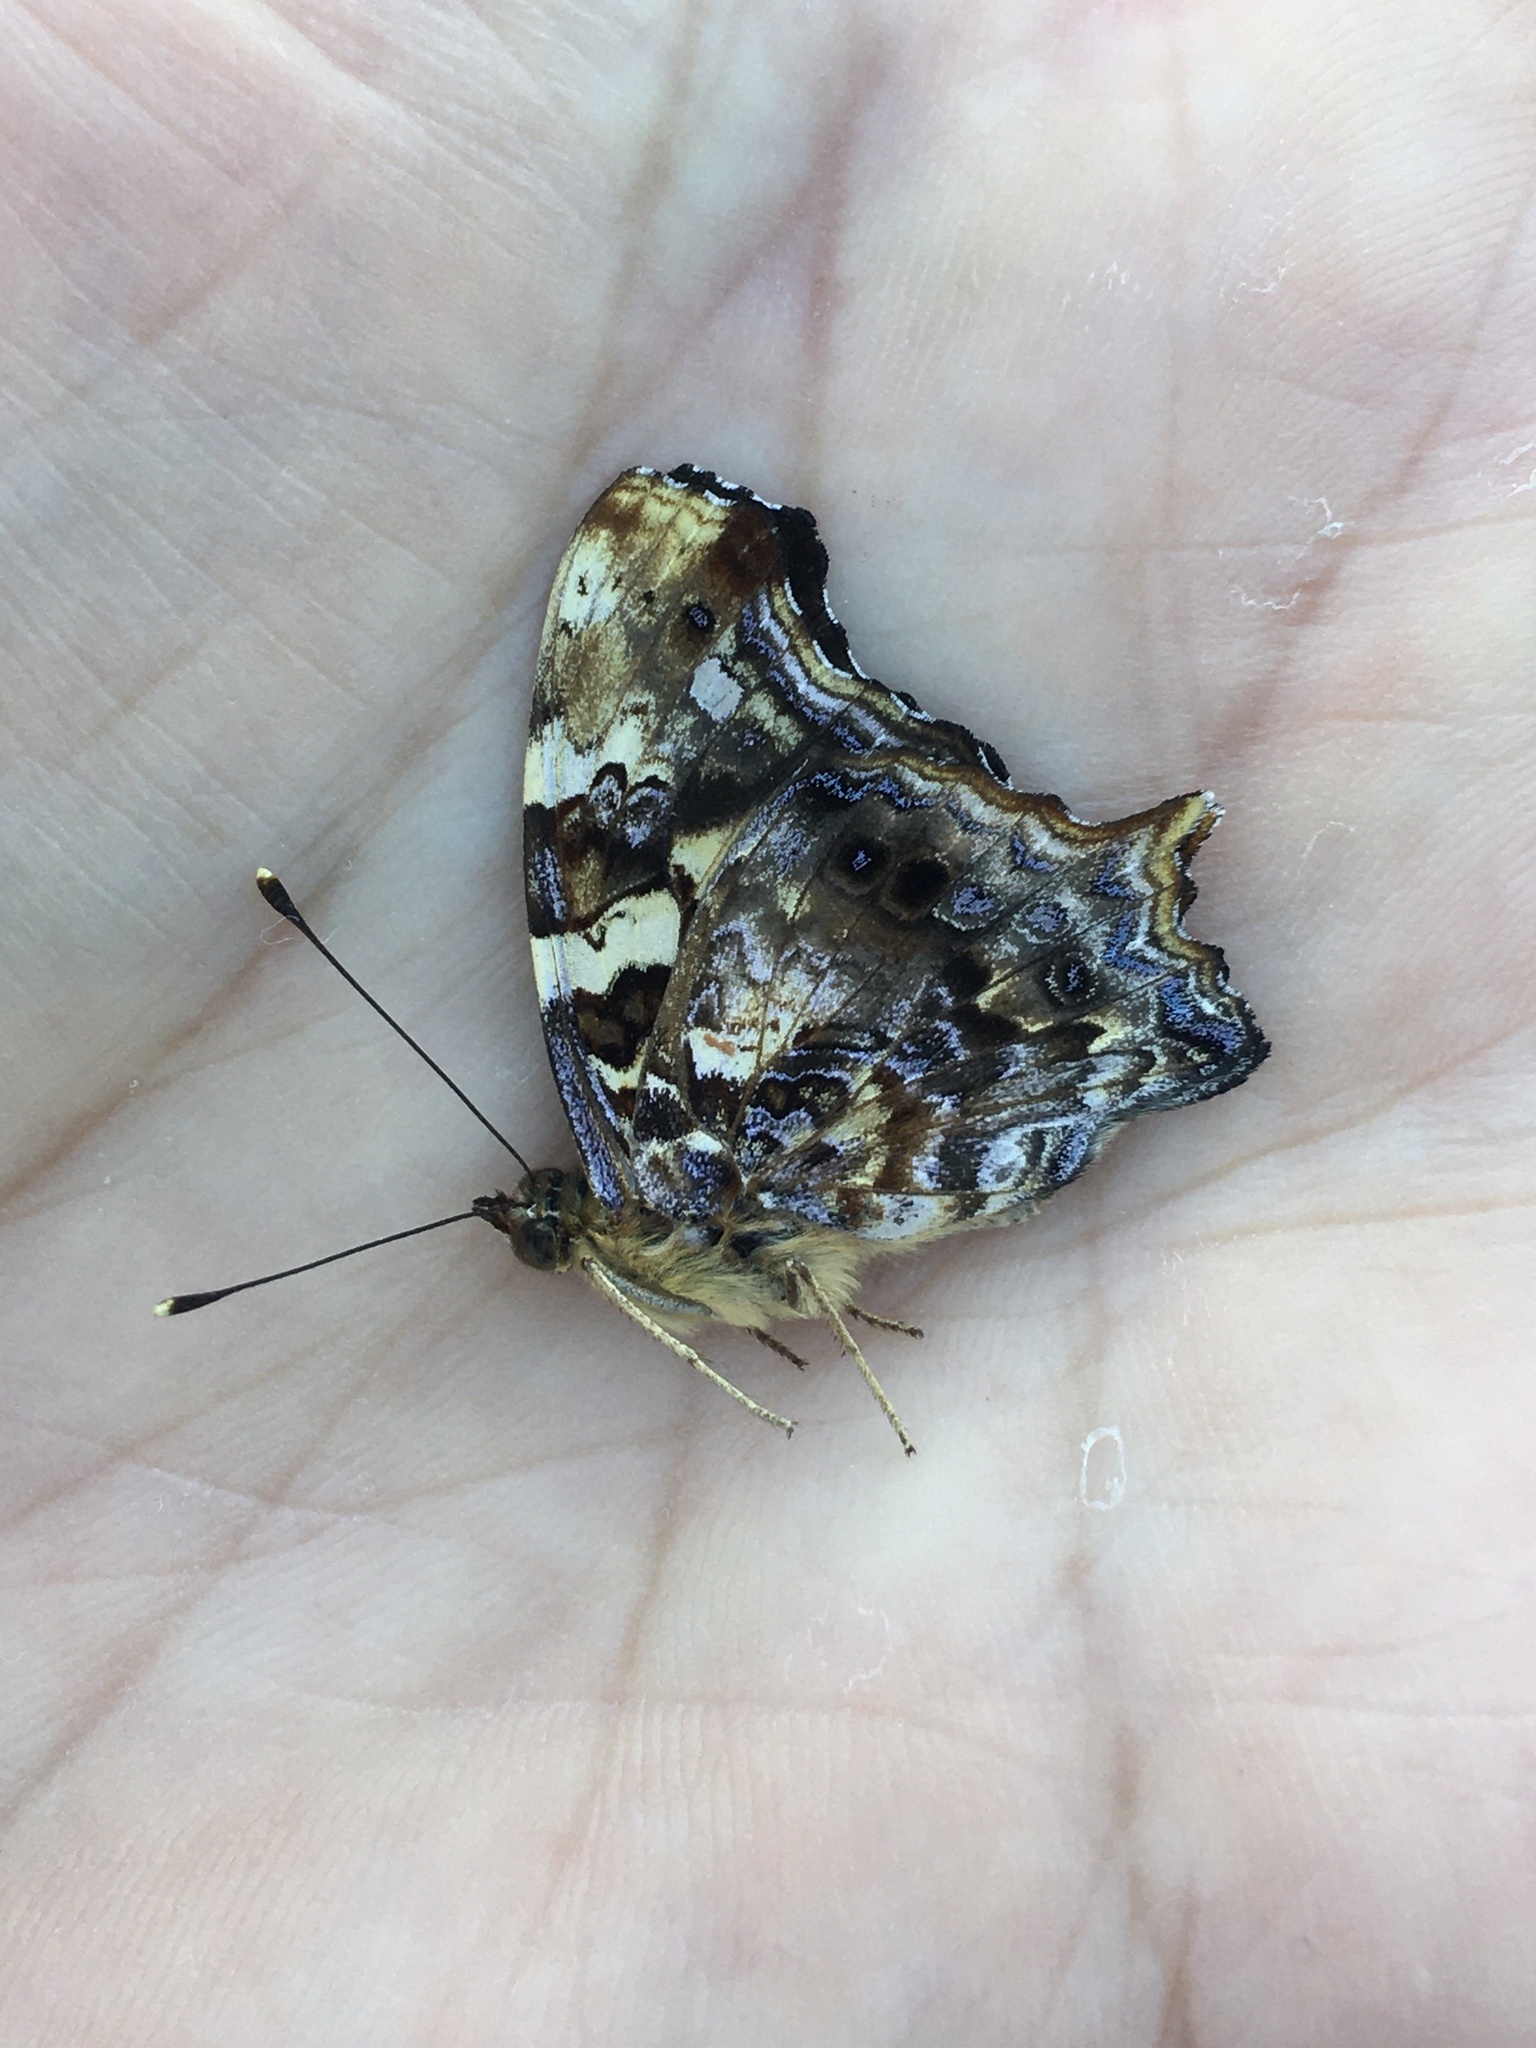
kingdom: Animalia
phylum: Arthropoda
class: Insecta
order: Lepidoptera
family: Nymphalidae
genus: Hypanartia
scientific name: Hypanartia bella
